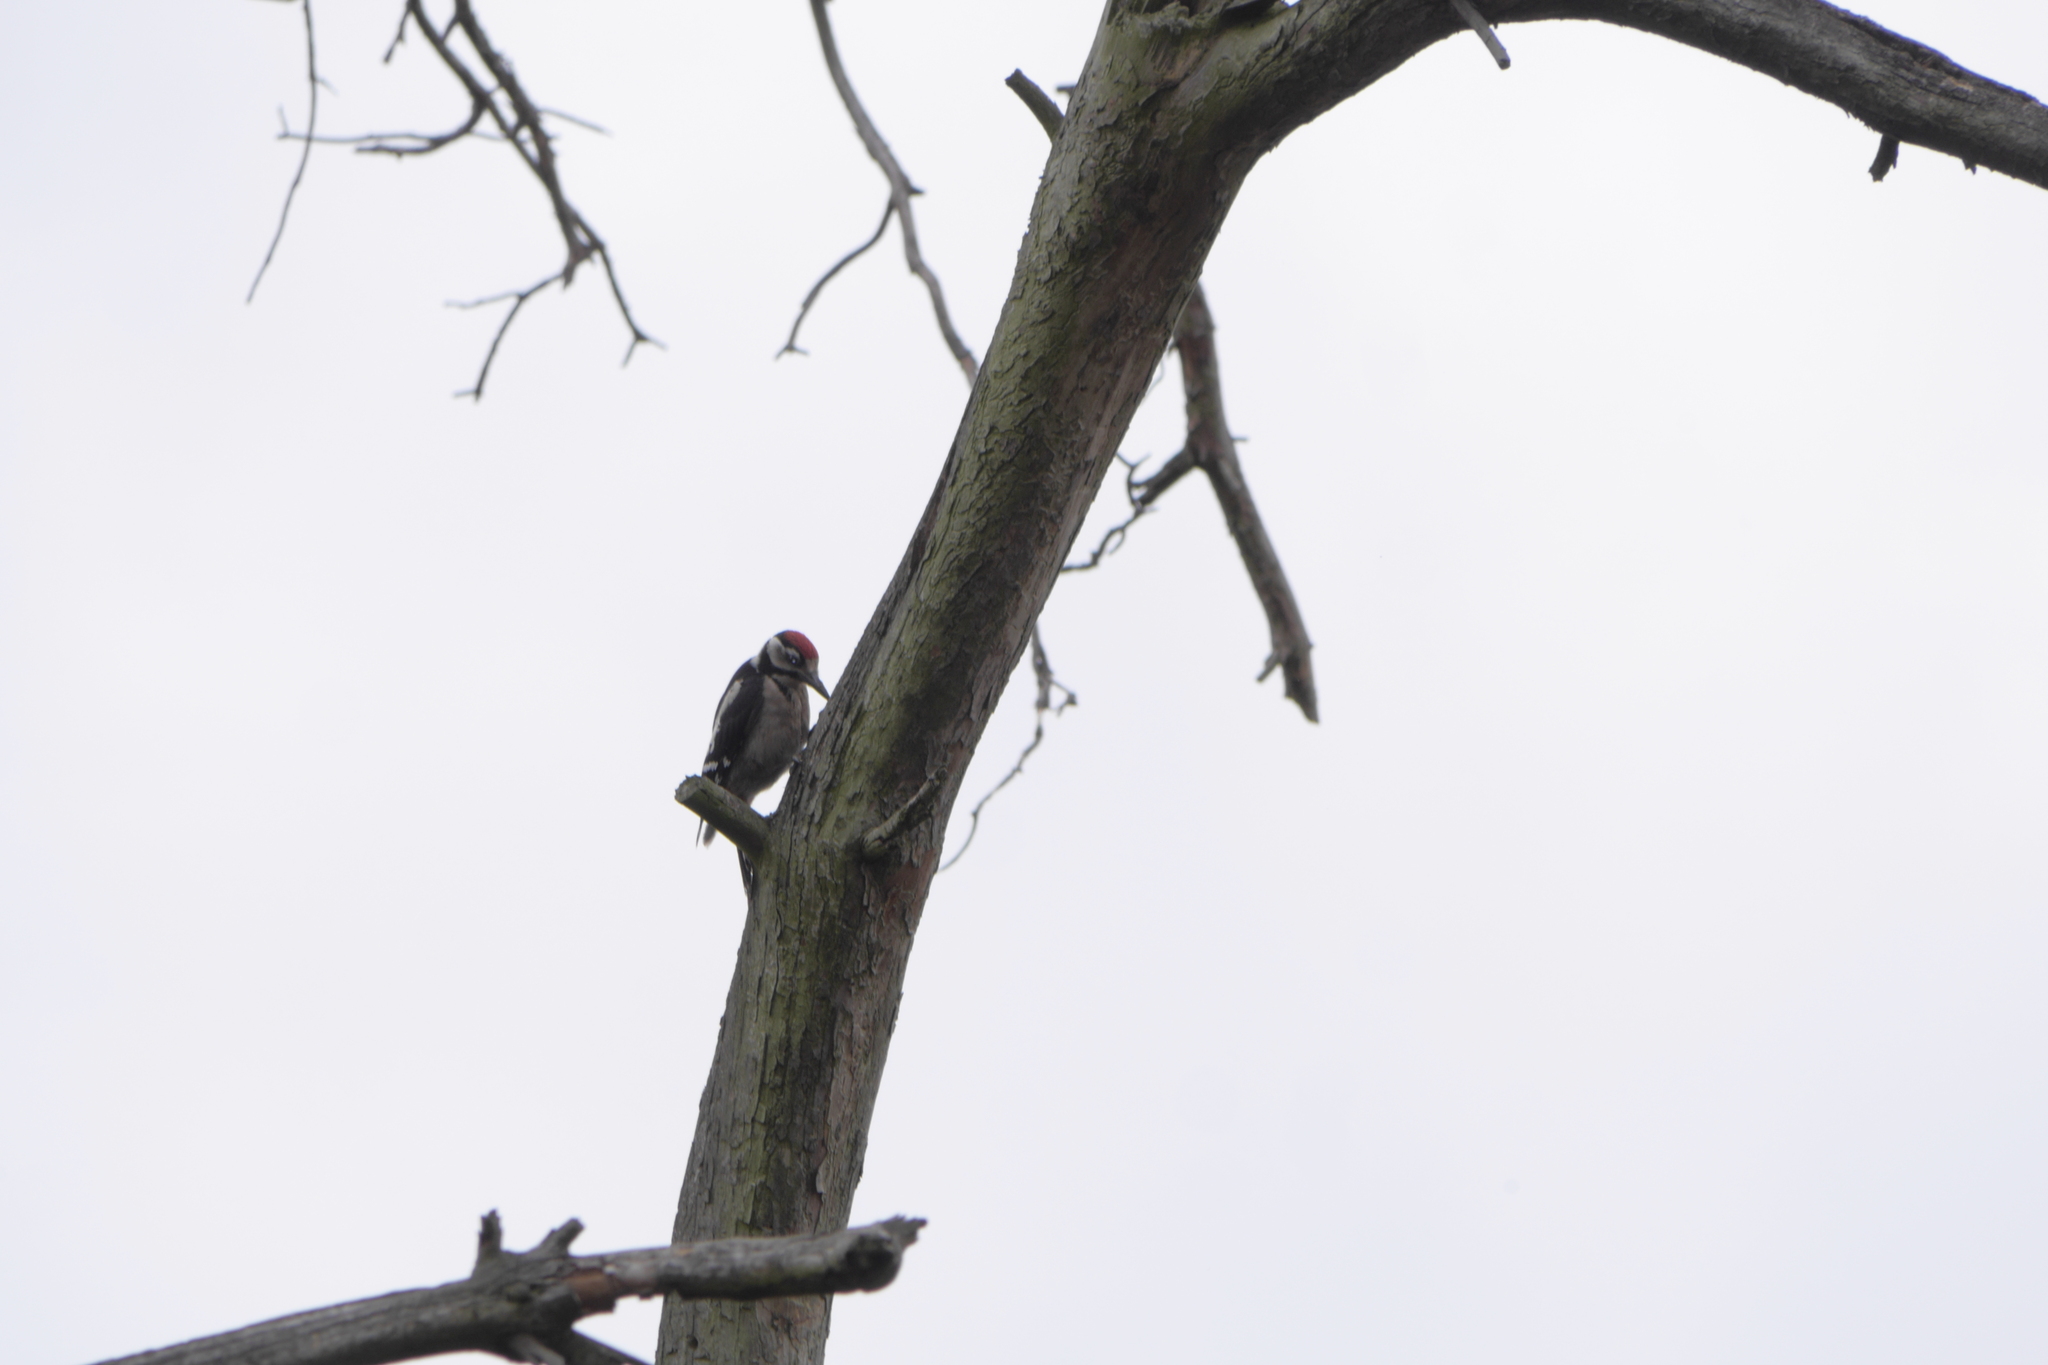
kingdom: Animalia
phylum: Chordata
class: Aves
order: Piciformes
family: Picidae
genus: Dendrocopos
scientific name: Dendrocopos major
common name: Great spotted woodpecker
